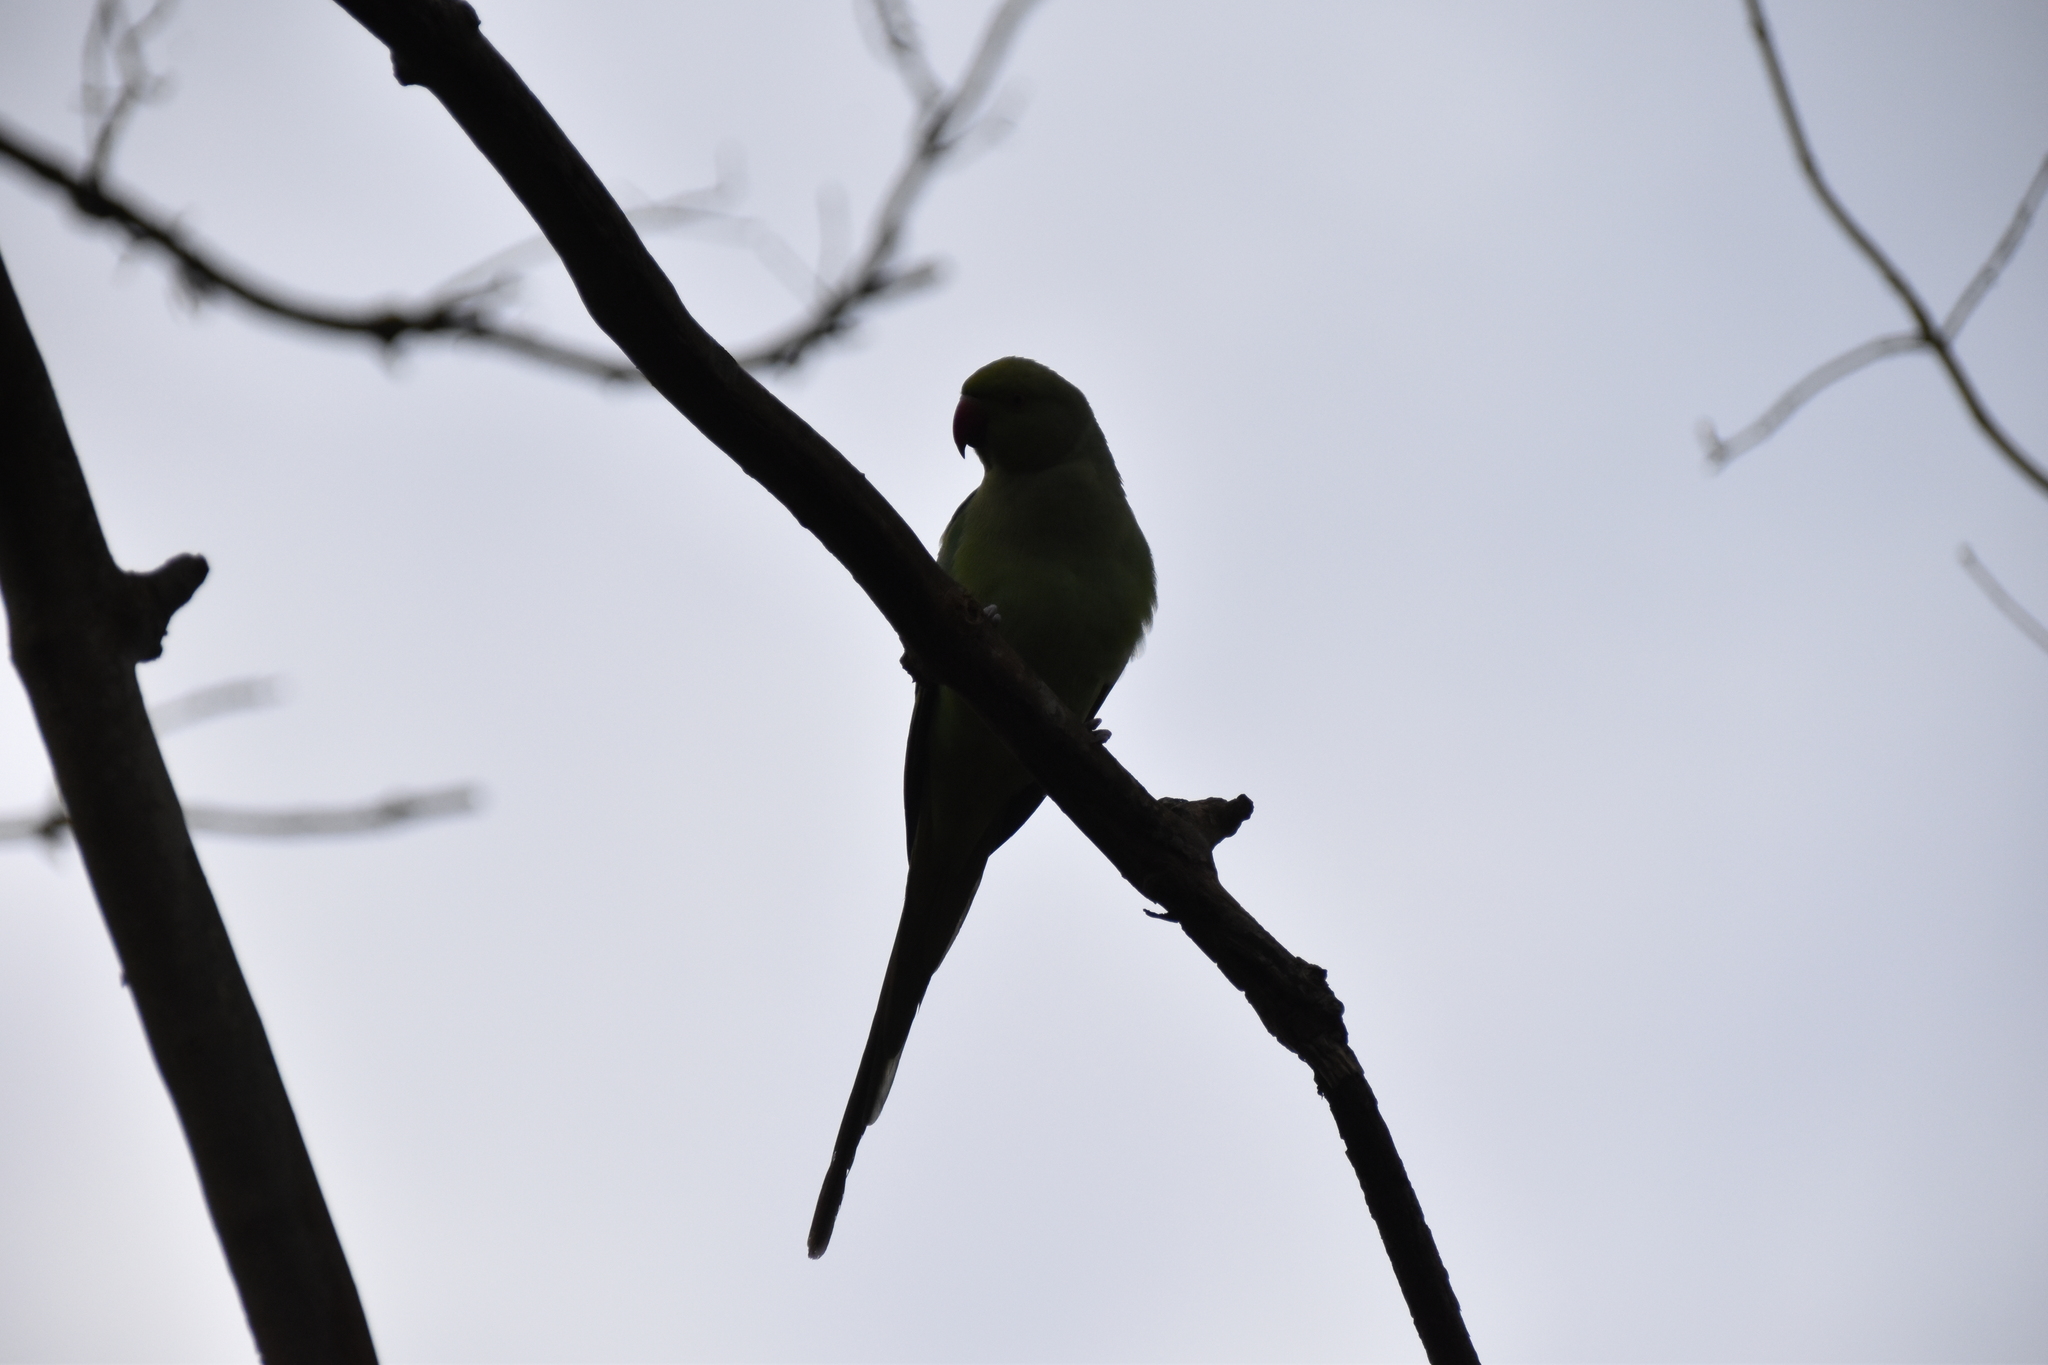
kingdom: Animalia
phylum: Chordata
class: Aves
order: Psittaciformes
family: Psittacidae
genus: Psittacula
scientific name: Psittacula krameri
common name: Rose-ringed parakeet
